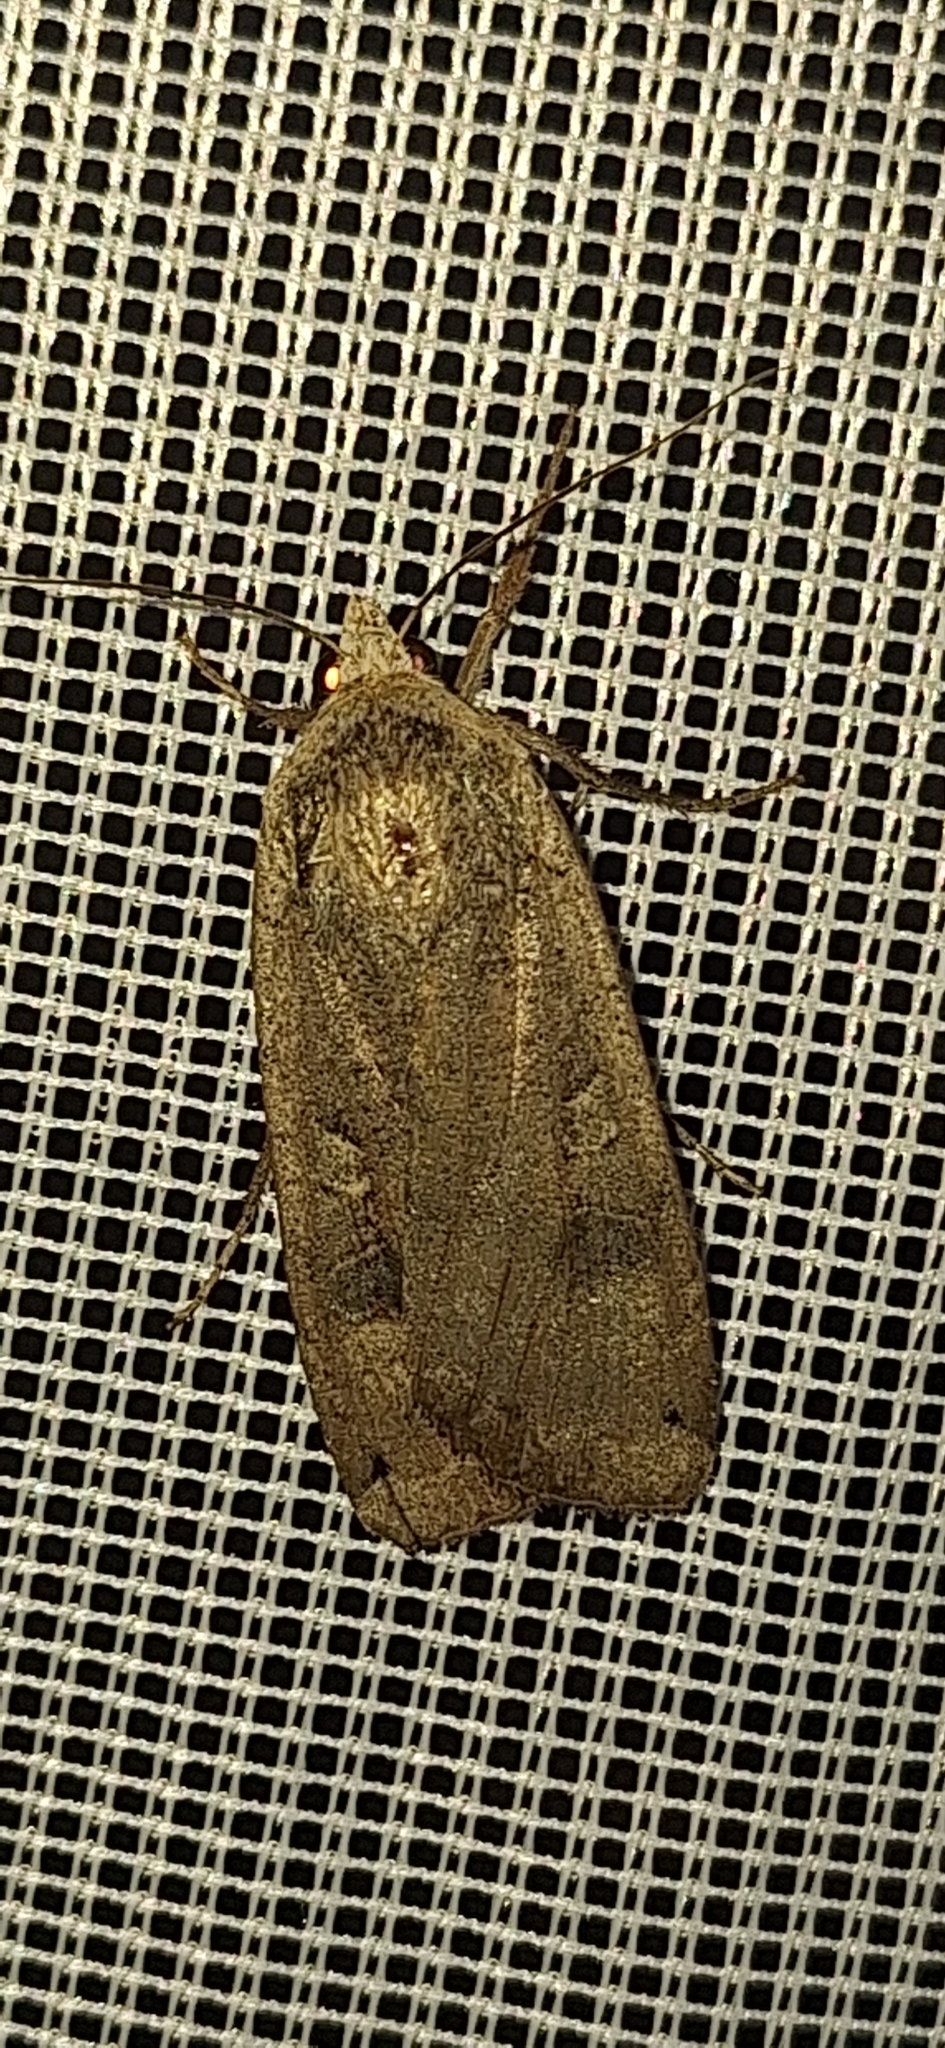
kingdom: Animalia
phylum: Arthropoda
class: Insecta
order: Lepidoptera
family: Noctuidae
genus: Noctua
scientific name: Noctua pronuba
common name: Large yellow underwing
